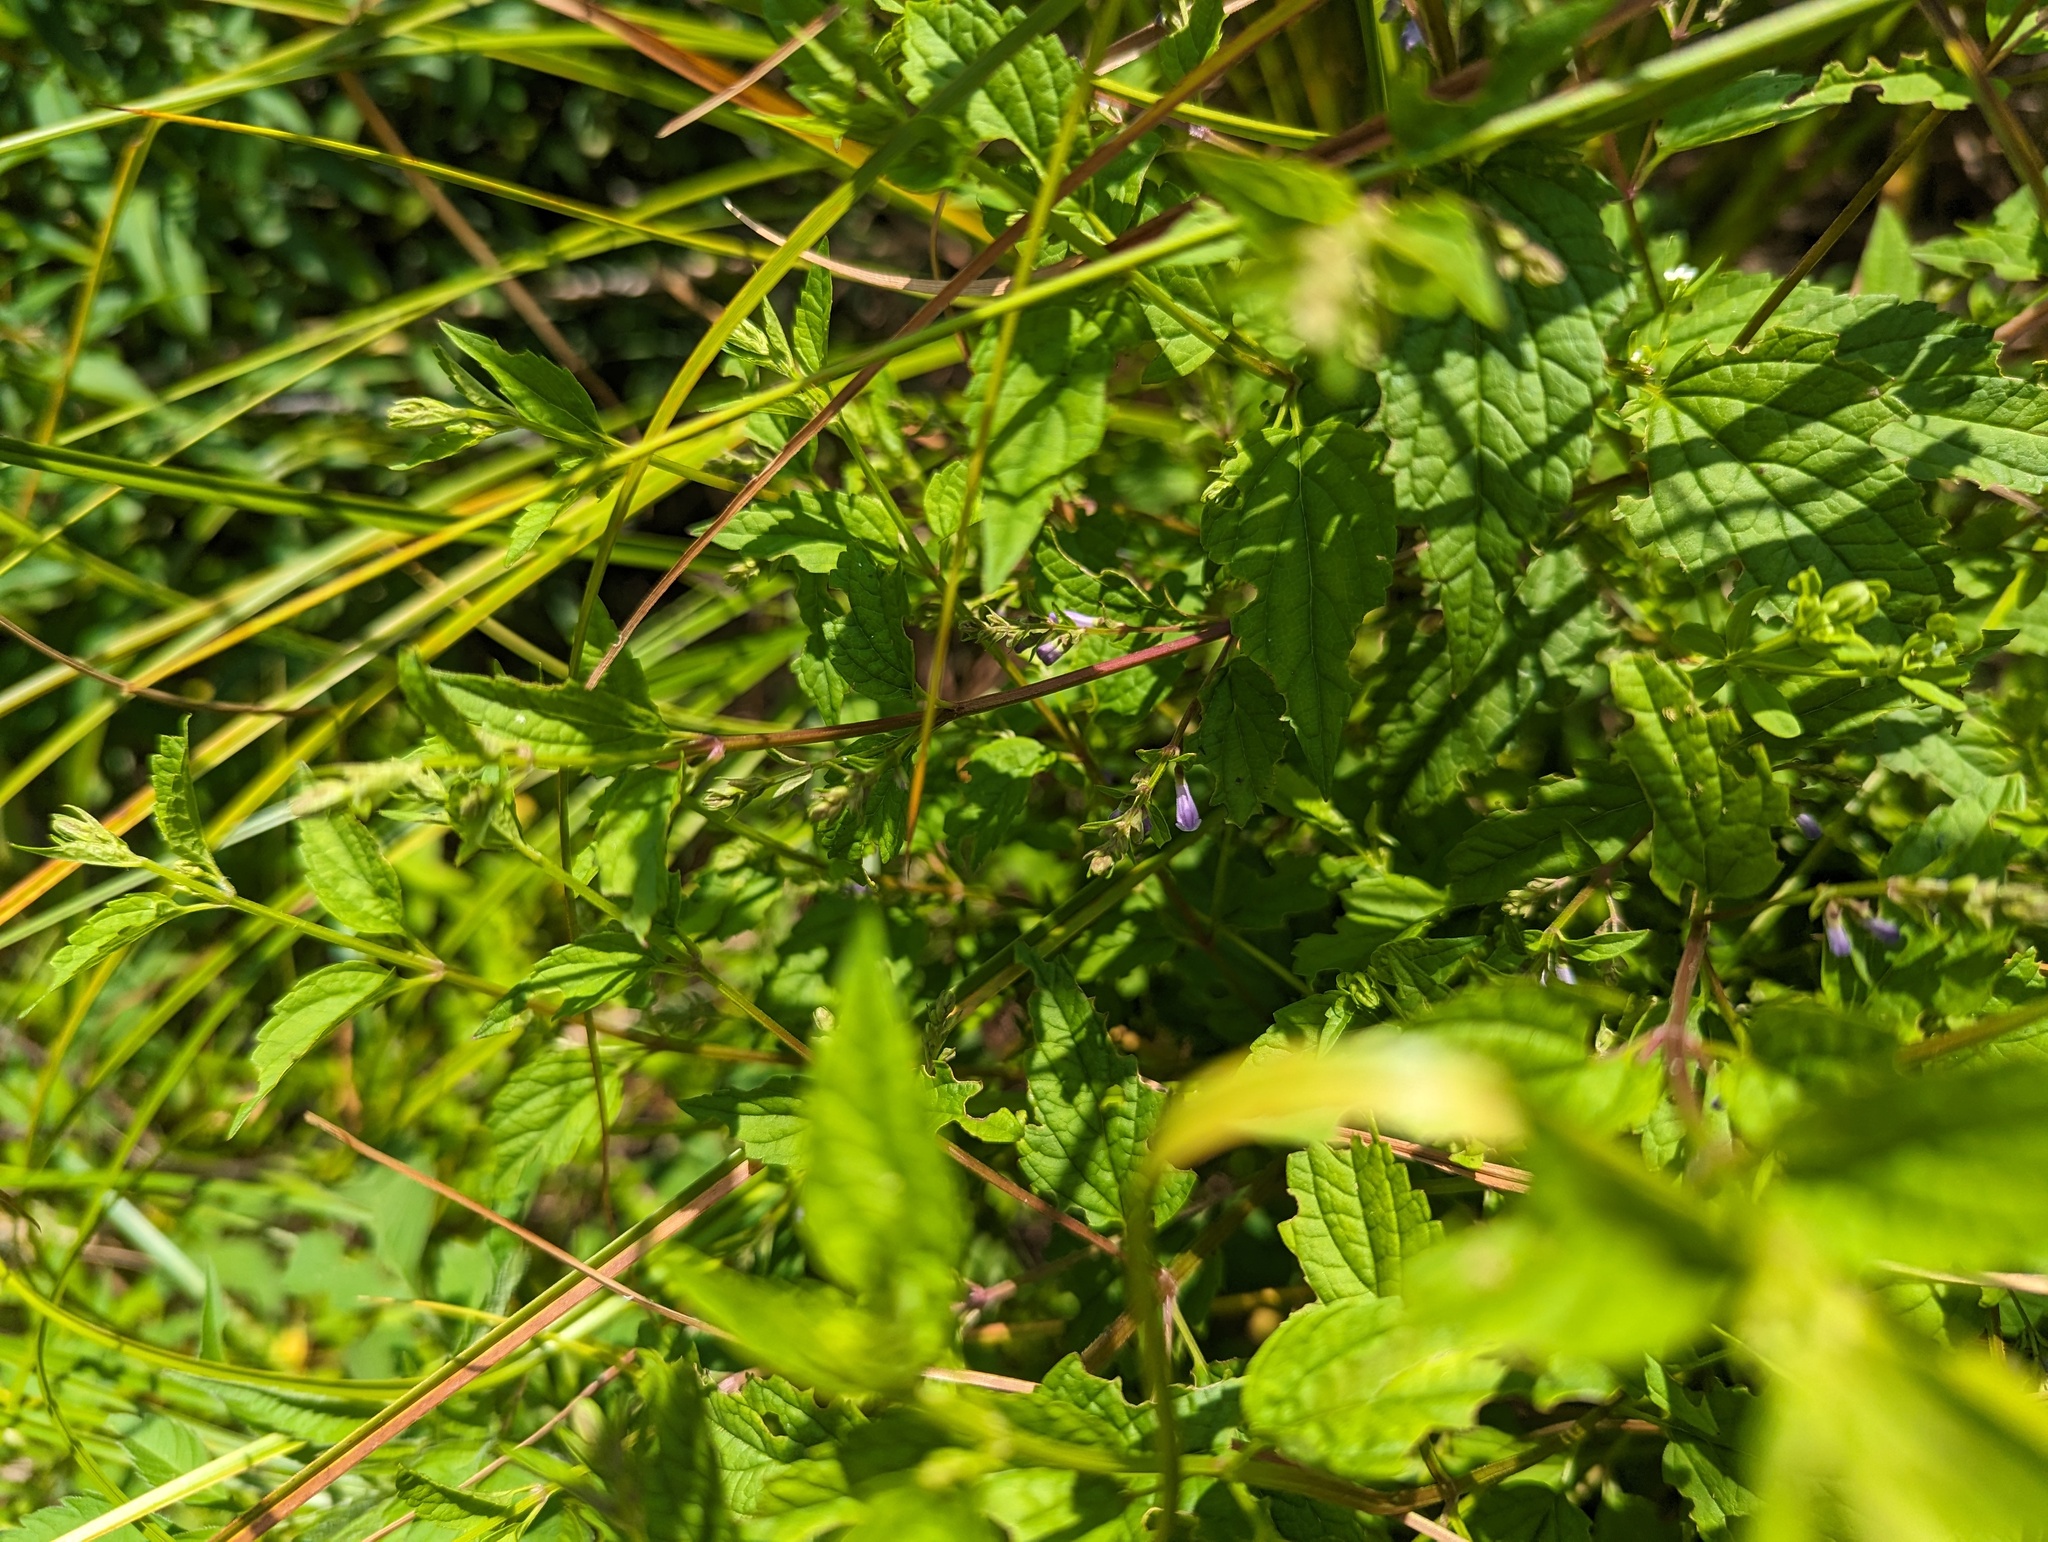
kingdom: Plantae
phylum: Tracheophyta
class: Magnoliopsida
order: Lamiales
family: Lamiaceae
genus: Scutellaria
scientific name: Scutellaria lateriflora
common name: Blue skullcap
